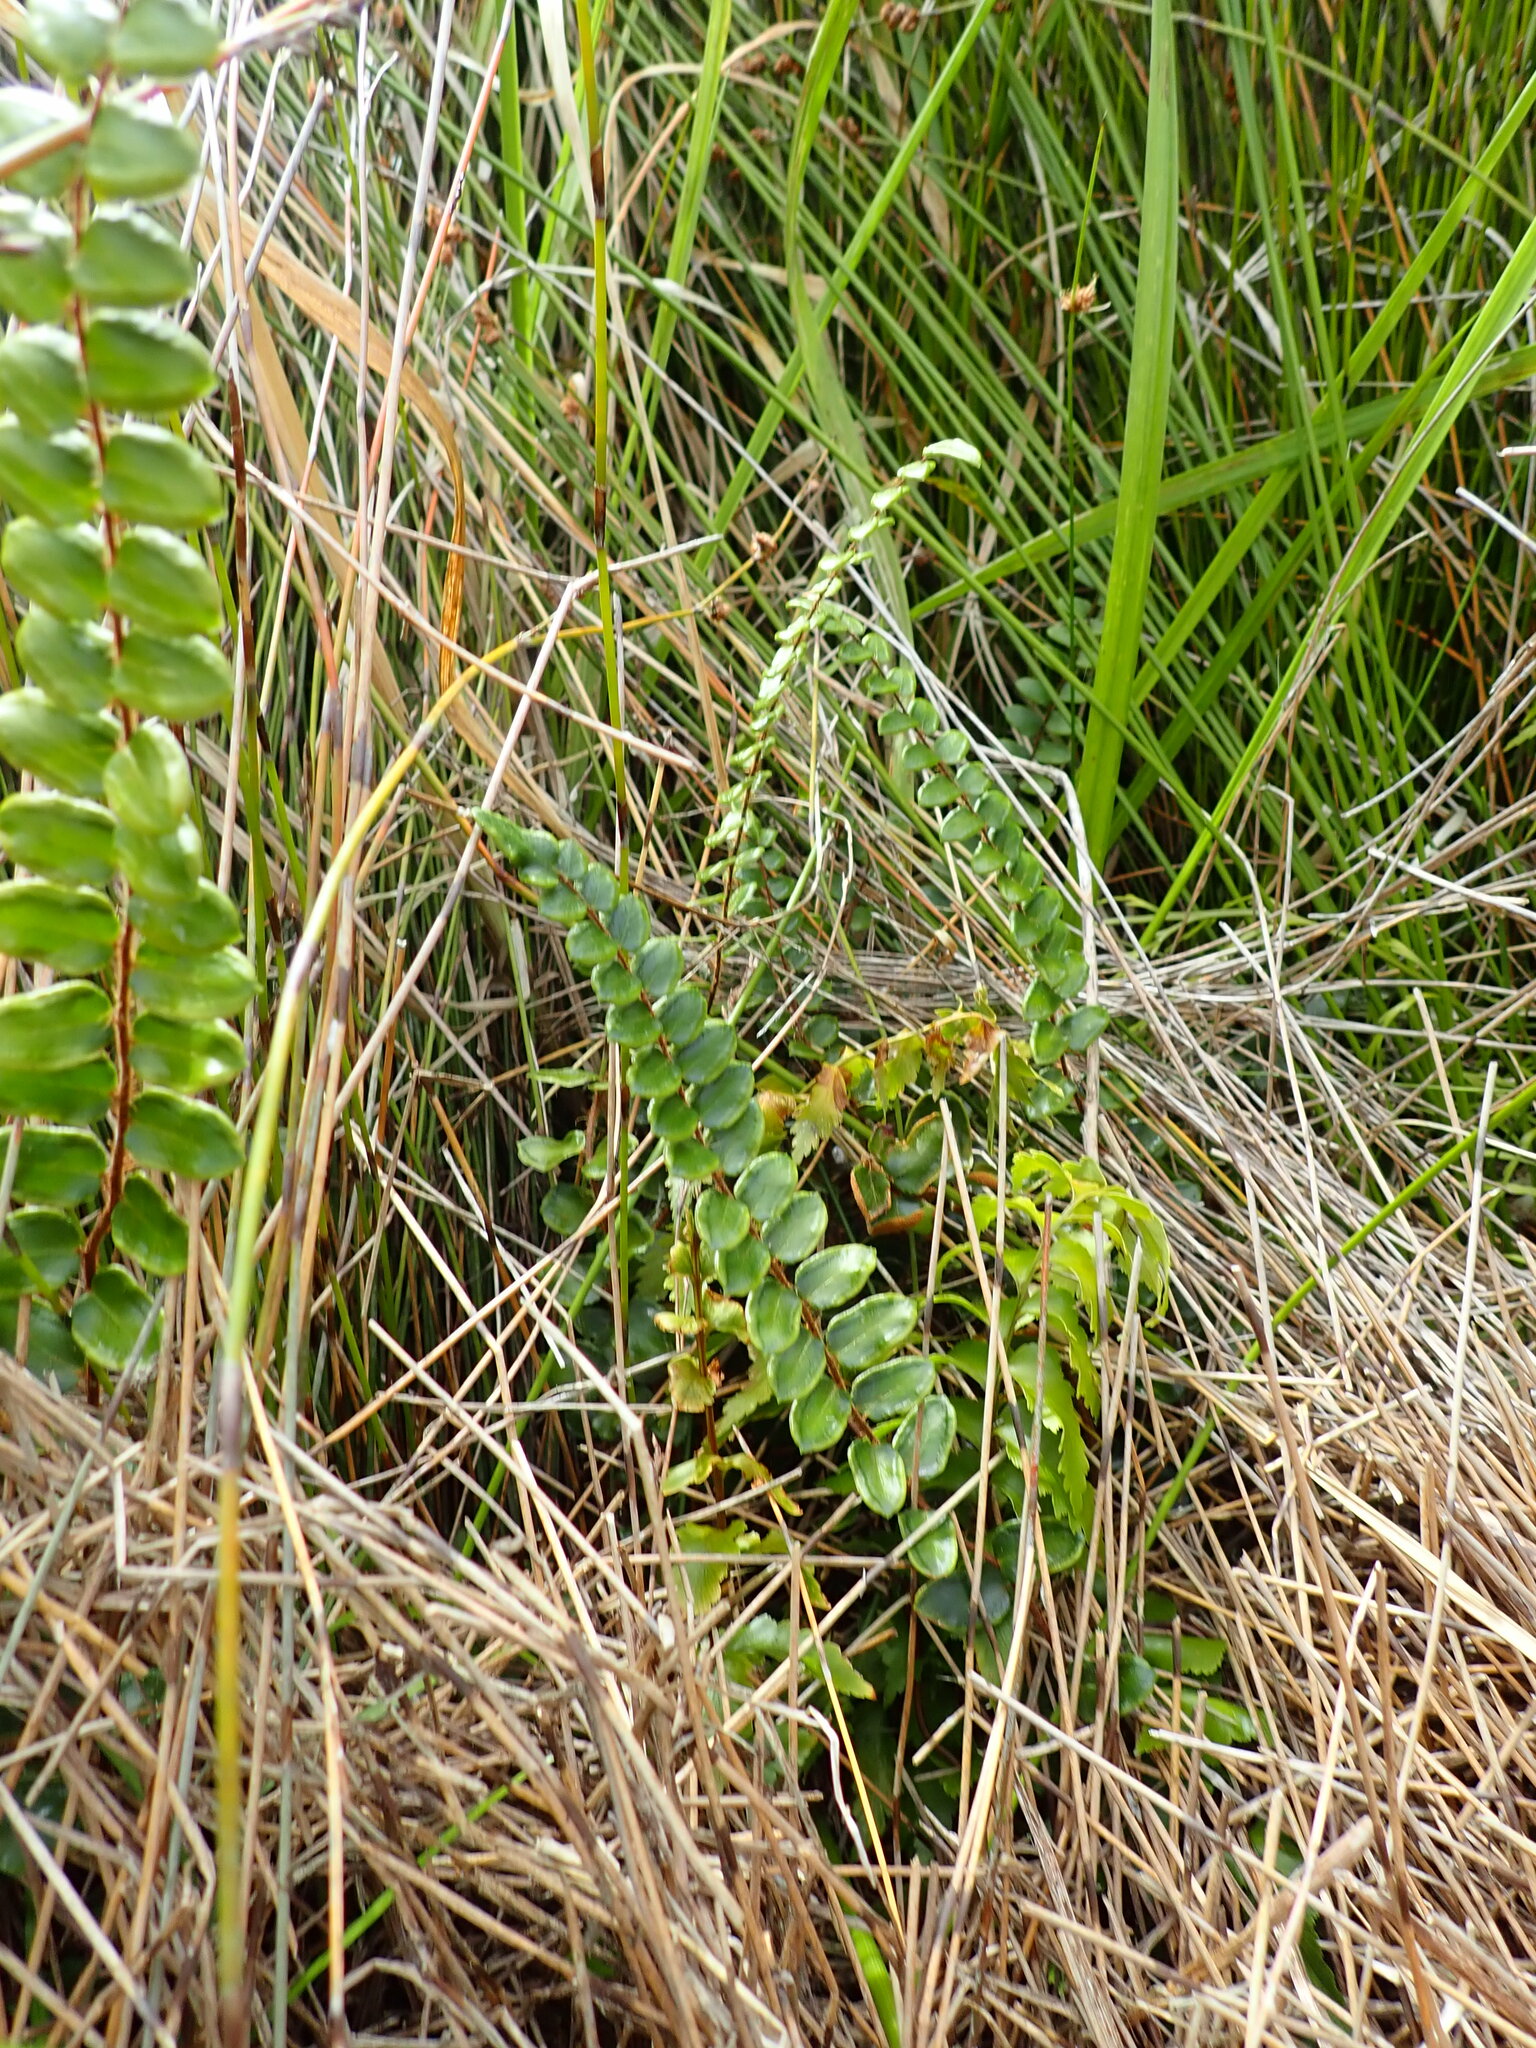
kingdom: Plantae
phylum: Tracheophyta
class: Polypodiopsida
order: Polypodiales
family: Pteridaceae
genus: Pellaea
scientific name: Pellaea rotundifolia
